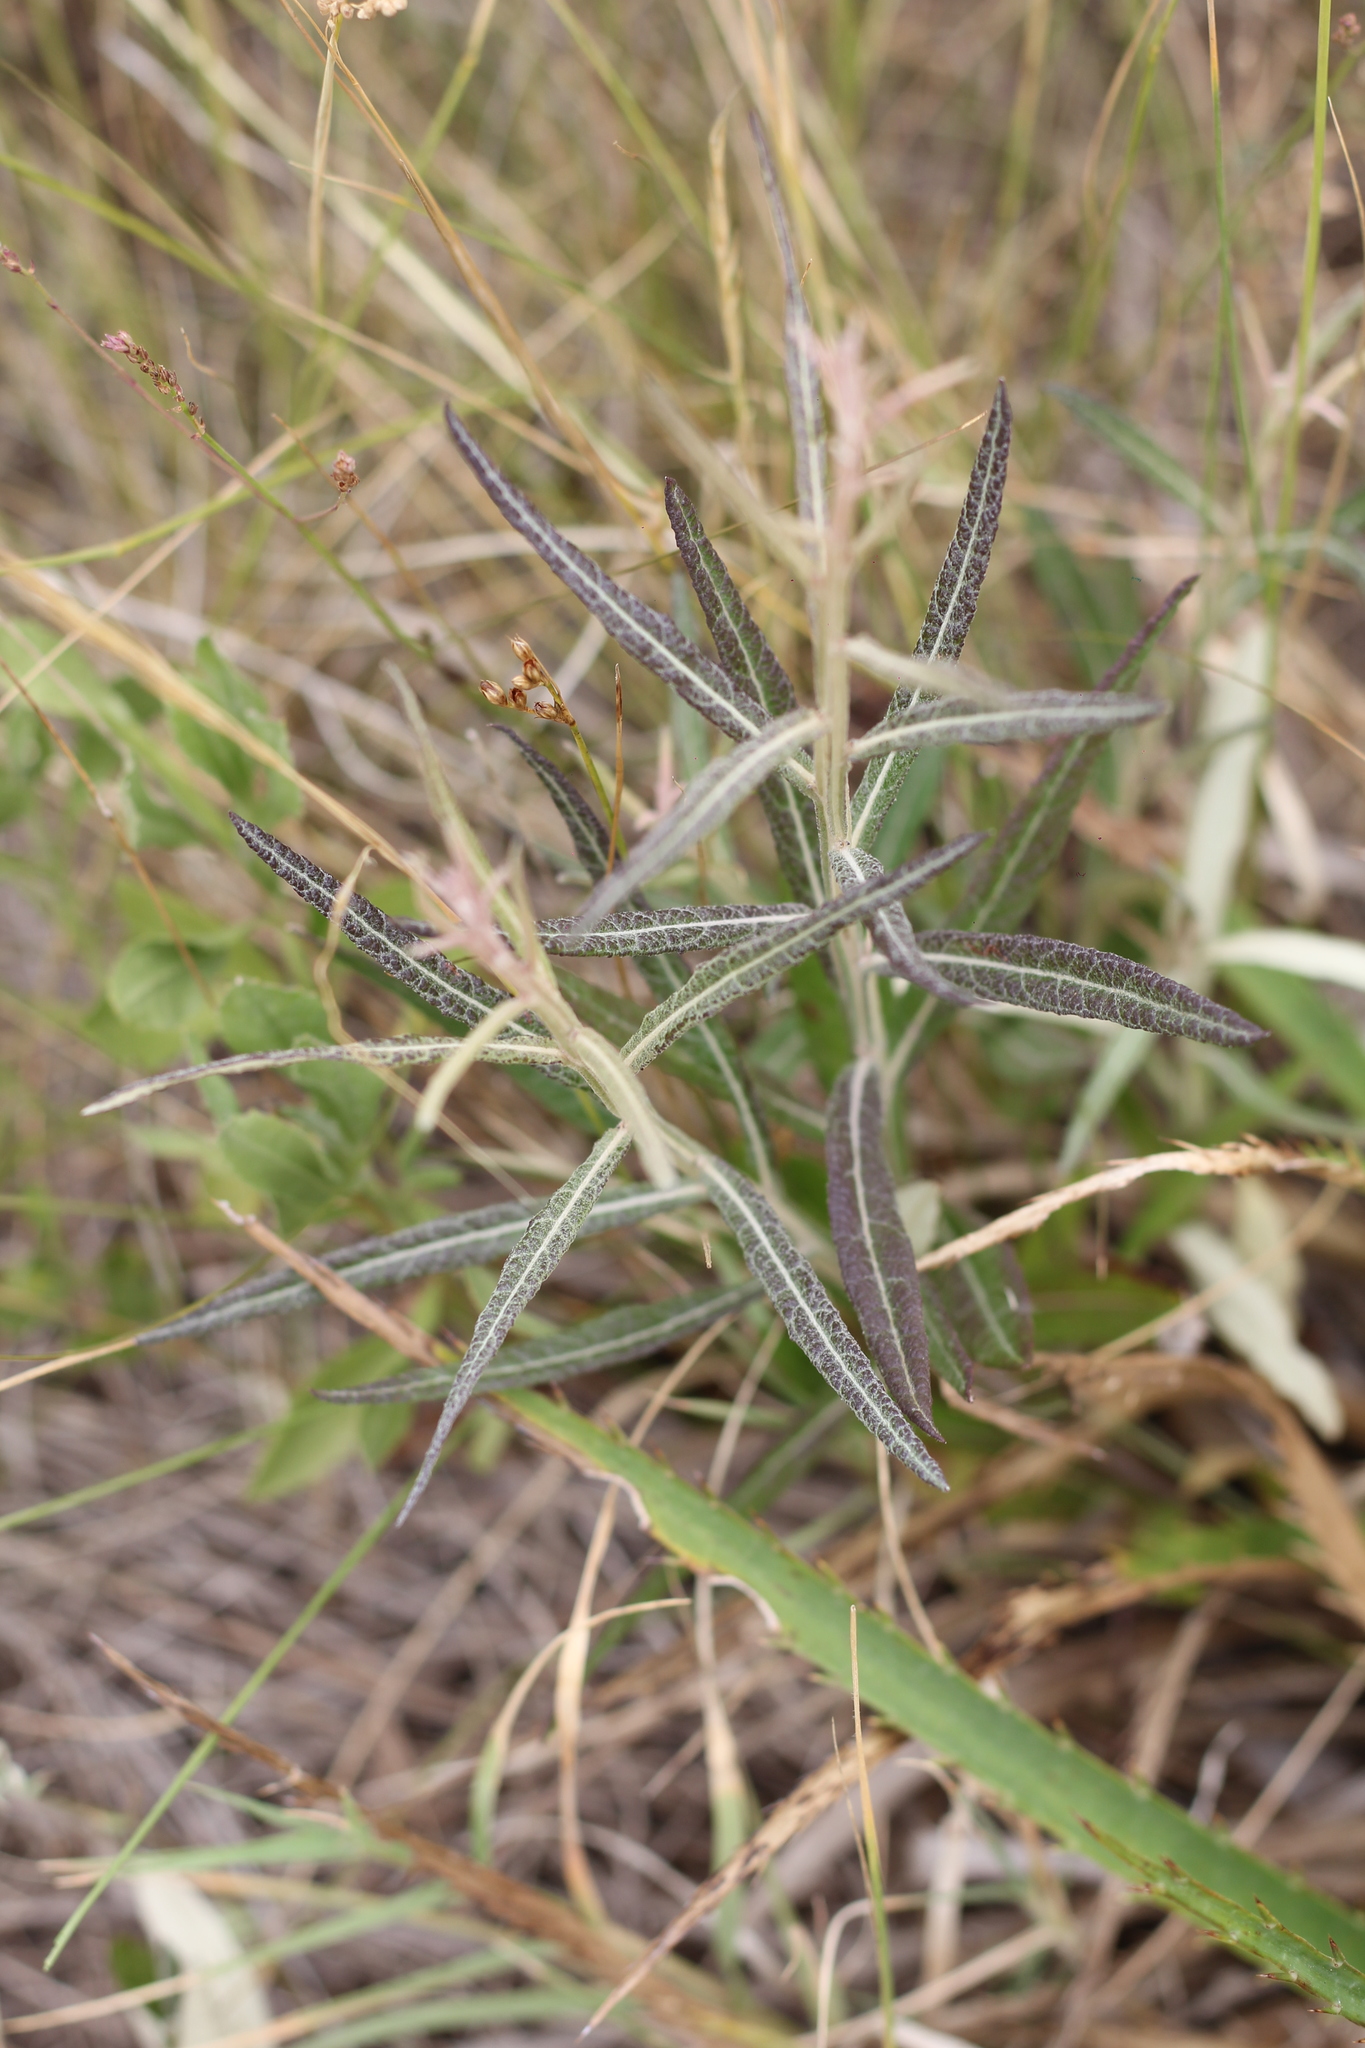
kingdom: Plantae
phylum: Tracheophyta
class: Magnoliopsida
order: Asterales
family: Asteraceae
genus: Pterocaulon
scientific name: Pterocaulon virgatum
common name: Wand blackroot
